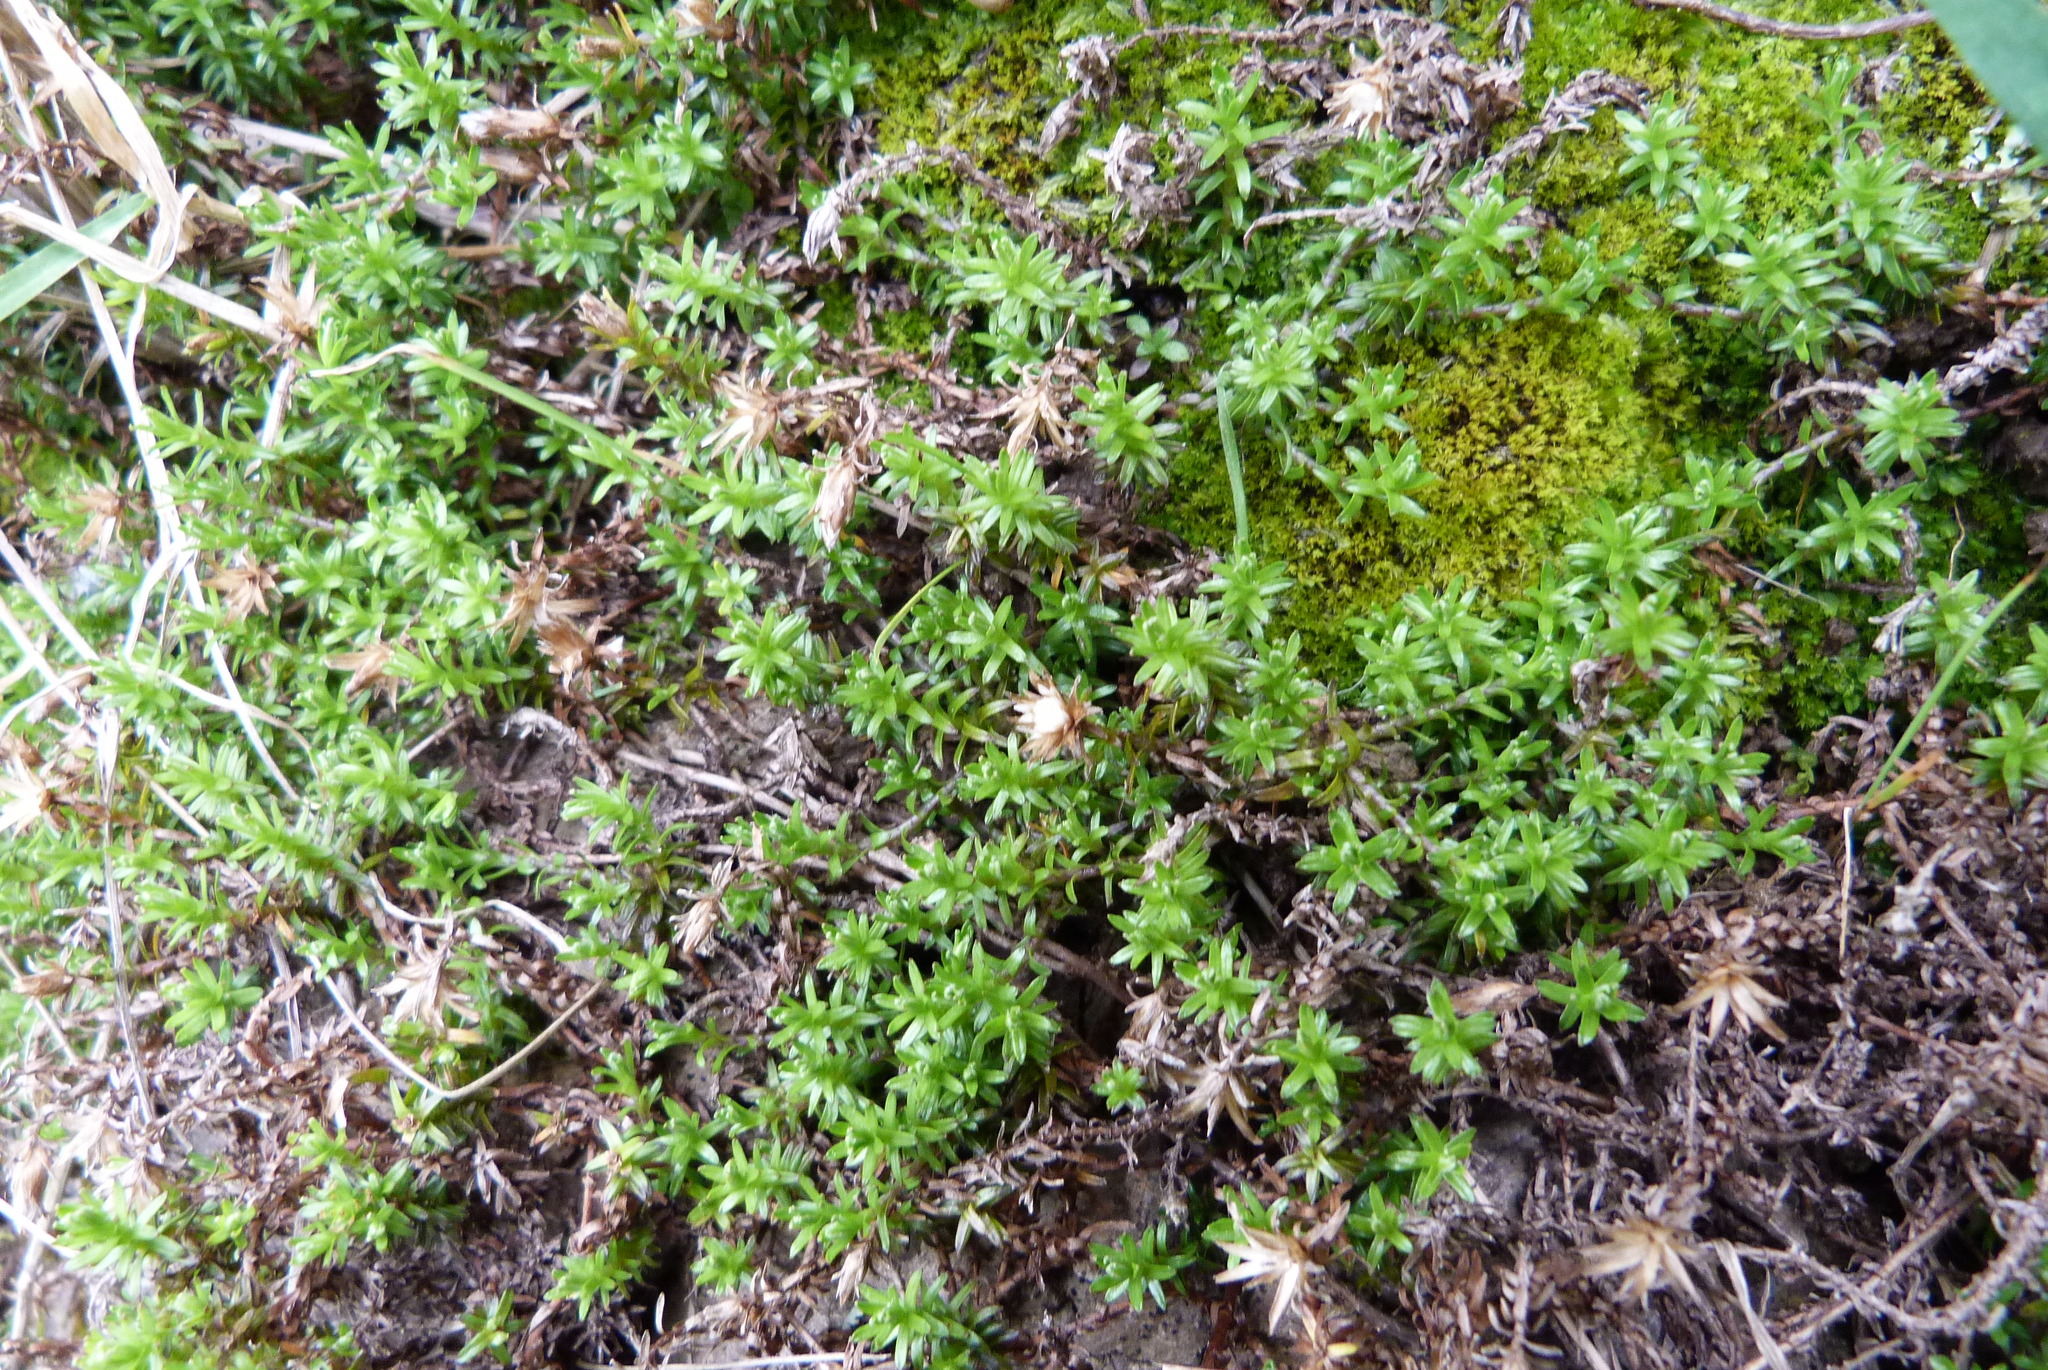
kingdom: Plantae
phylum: Tracheophyta
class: Magnoliopsida
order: Asterales
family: Asteraceae
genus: Raoulia
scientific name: Raoulia glabra
